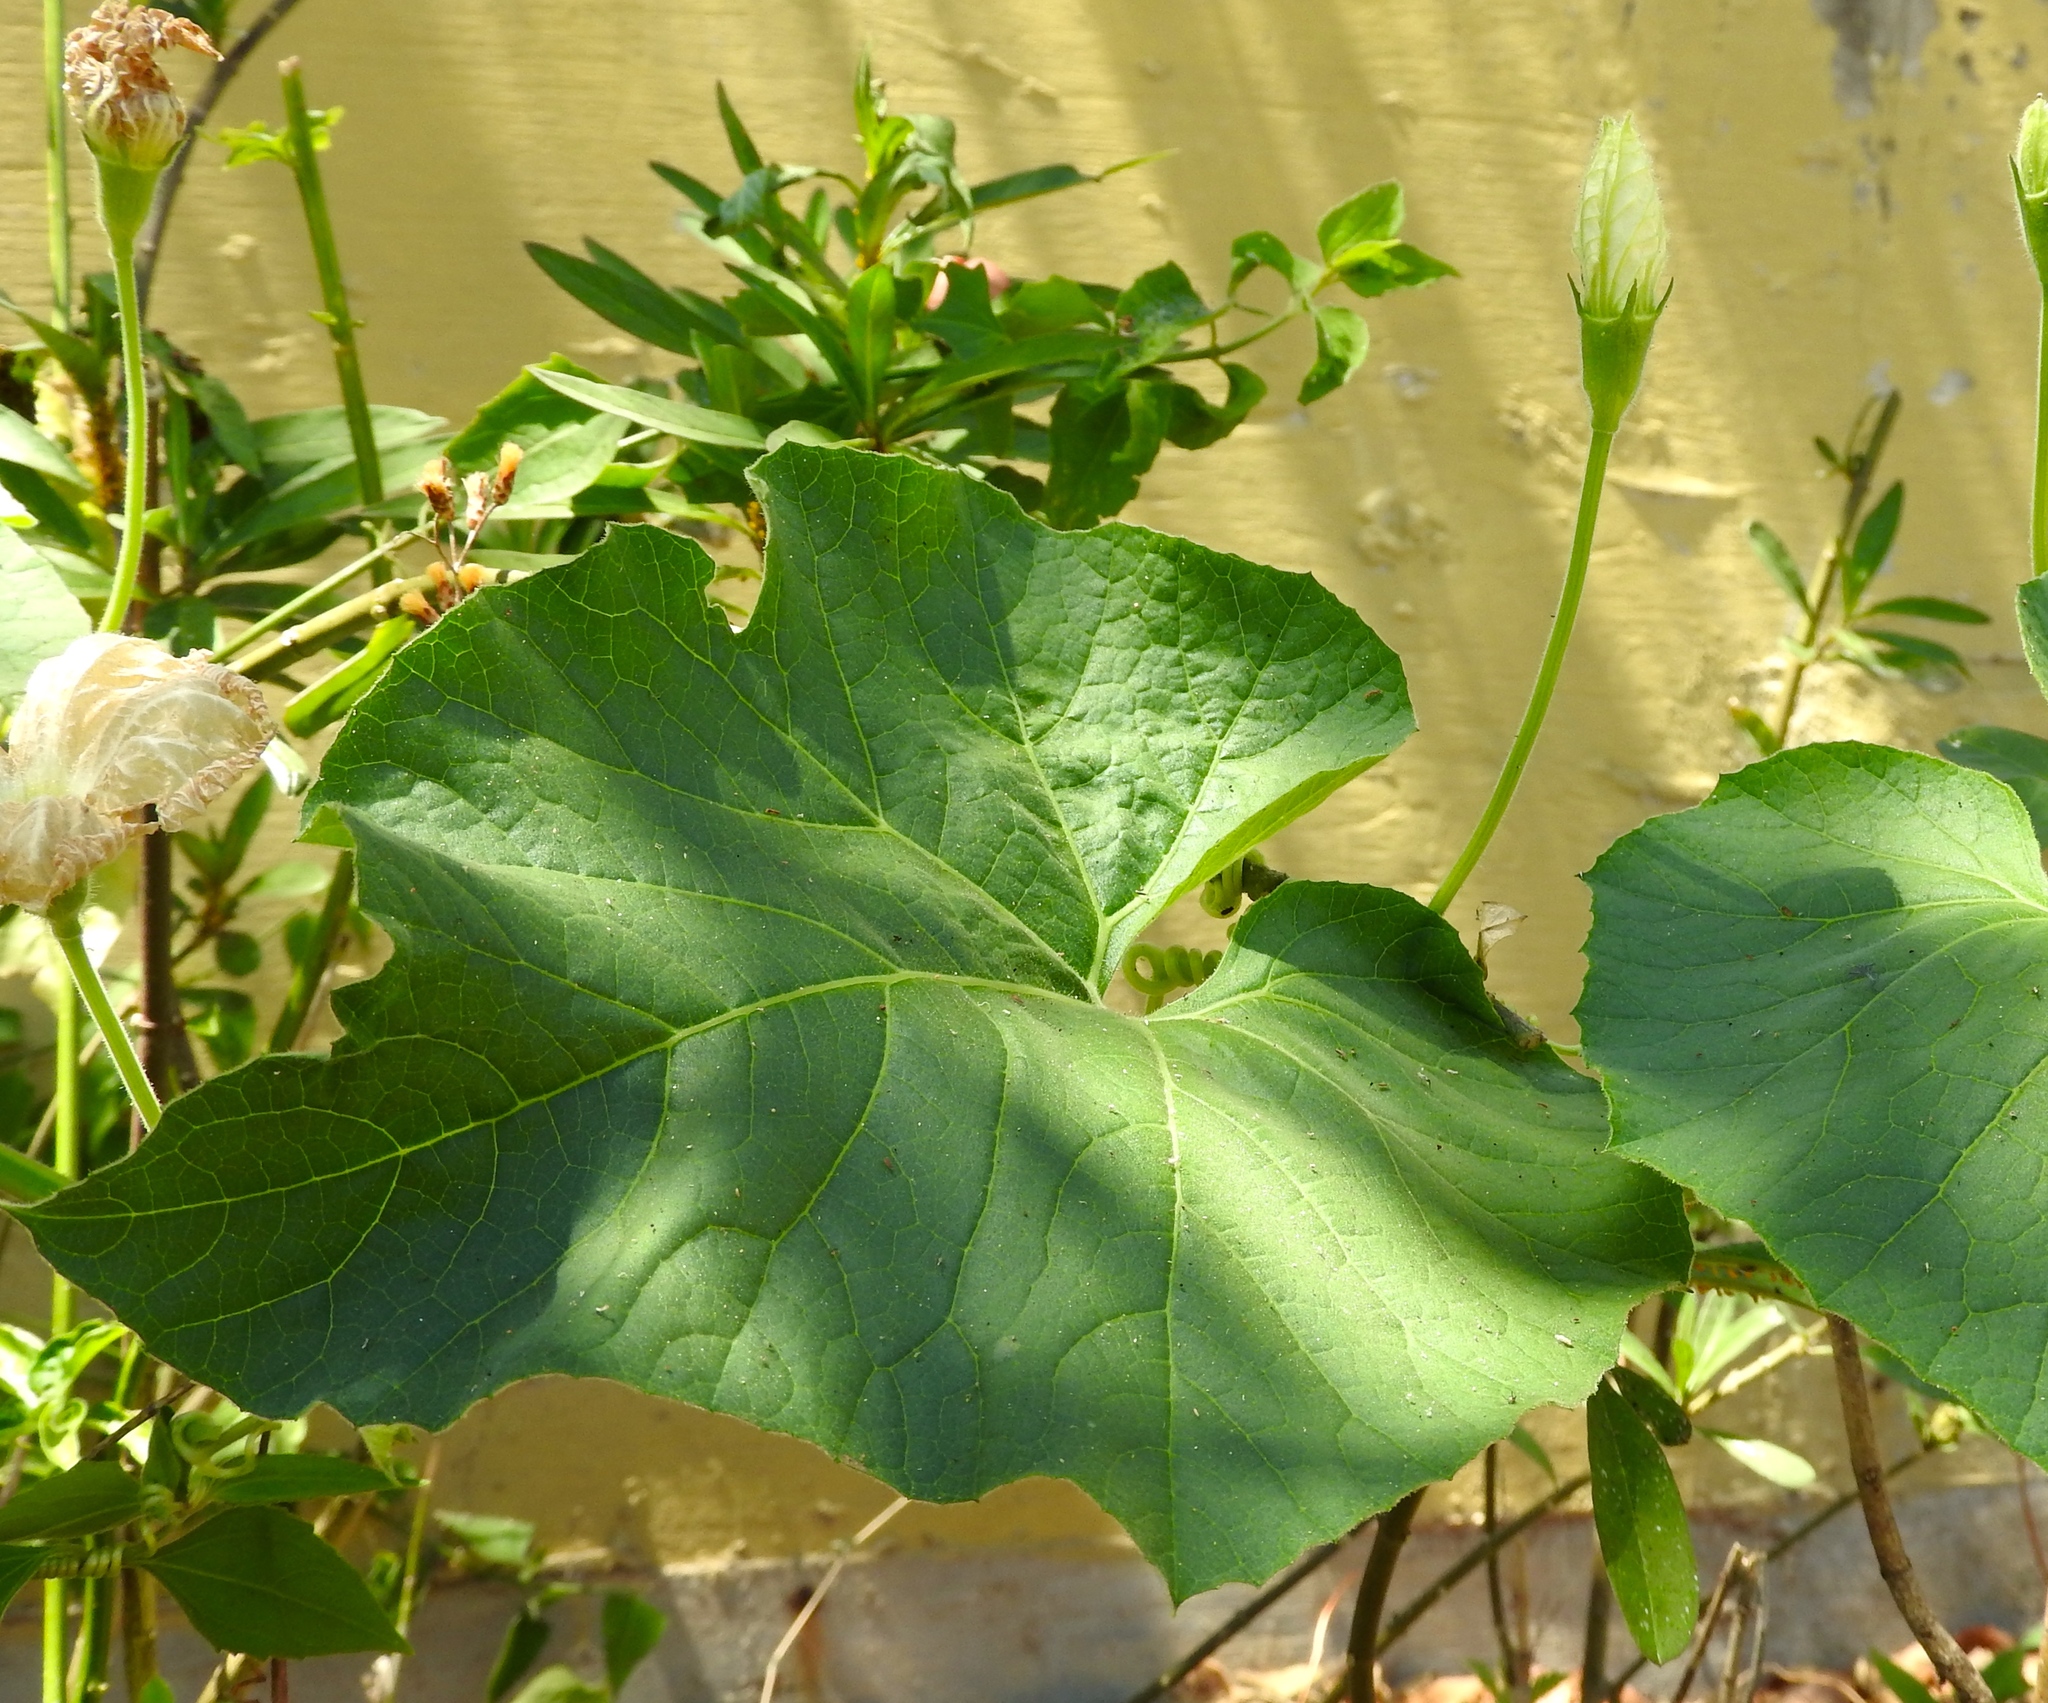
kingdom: Plantae
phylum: Tracheophyta
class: Magnoliopsida
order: Cucurbitales
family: Cucurbitaceae
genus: Lagenaria
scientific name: Lagenaria siceraria
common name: Bottle gourd
